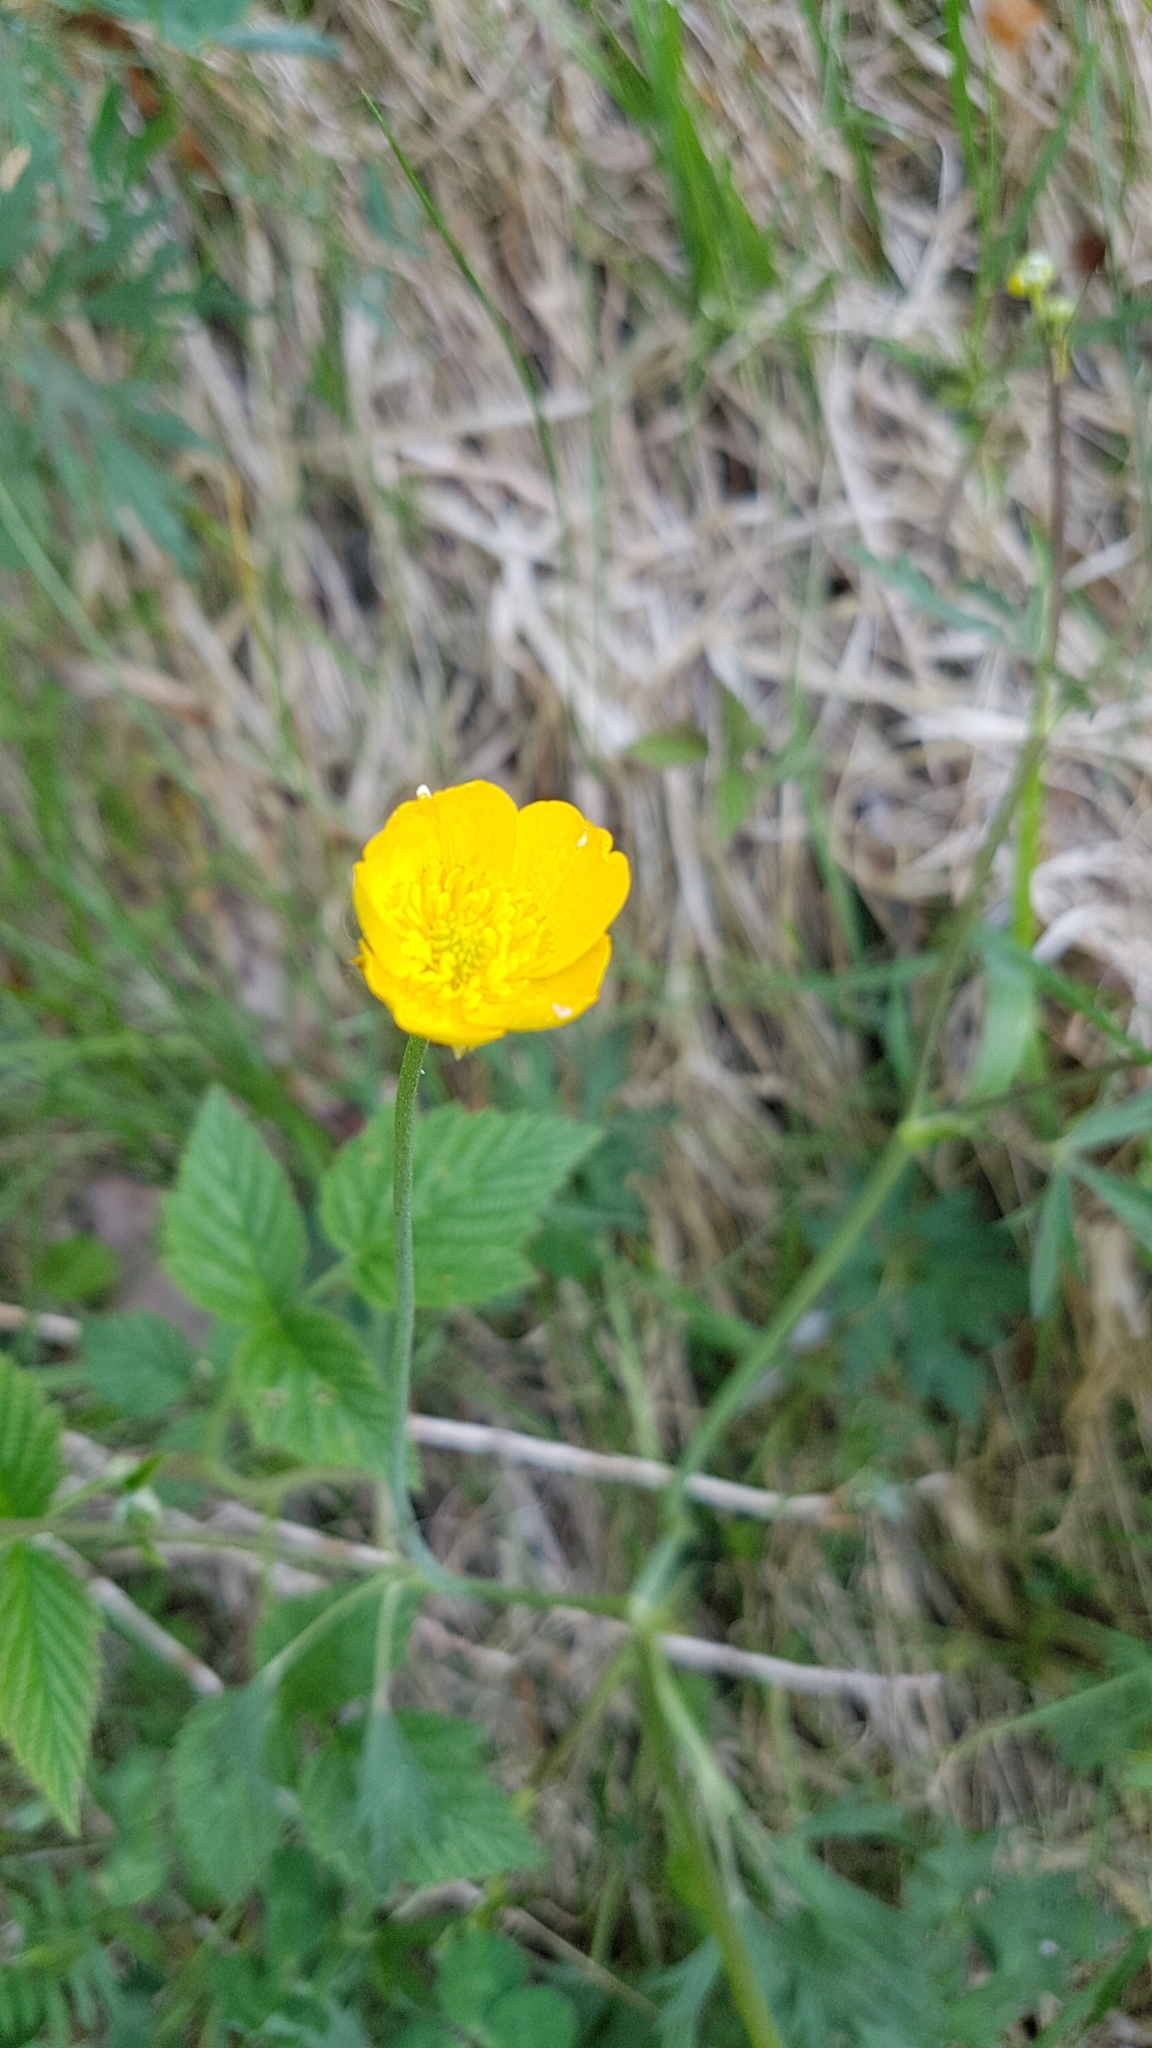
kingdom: Plantae
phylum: Tracheophyta
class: Magnoliopsida
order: Ranunculales
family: Ranunculaceae
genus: Ranunculus
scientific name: Ranunculus acris
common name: Meadow buttercup
